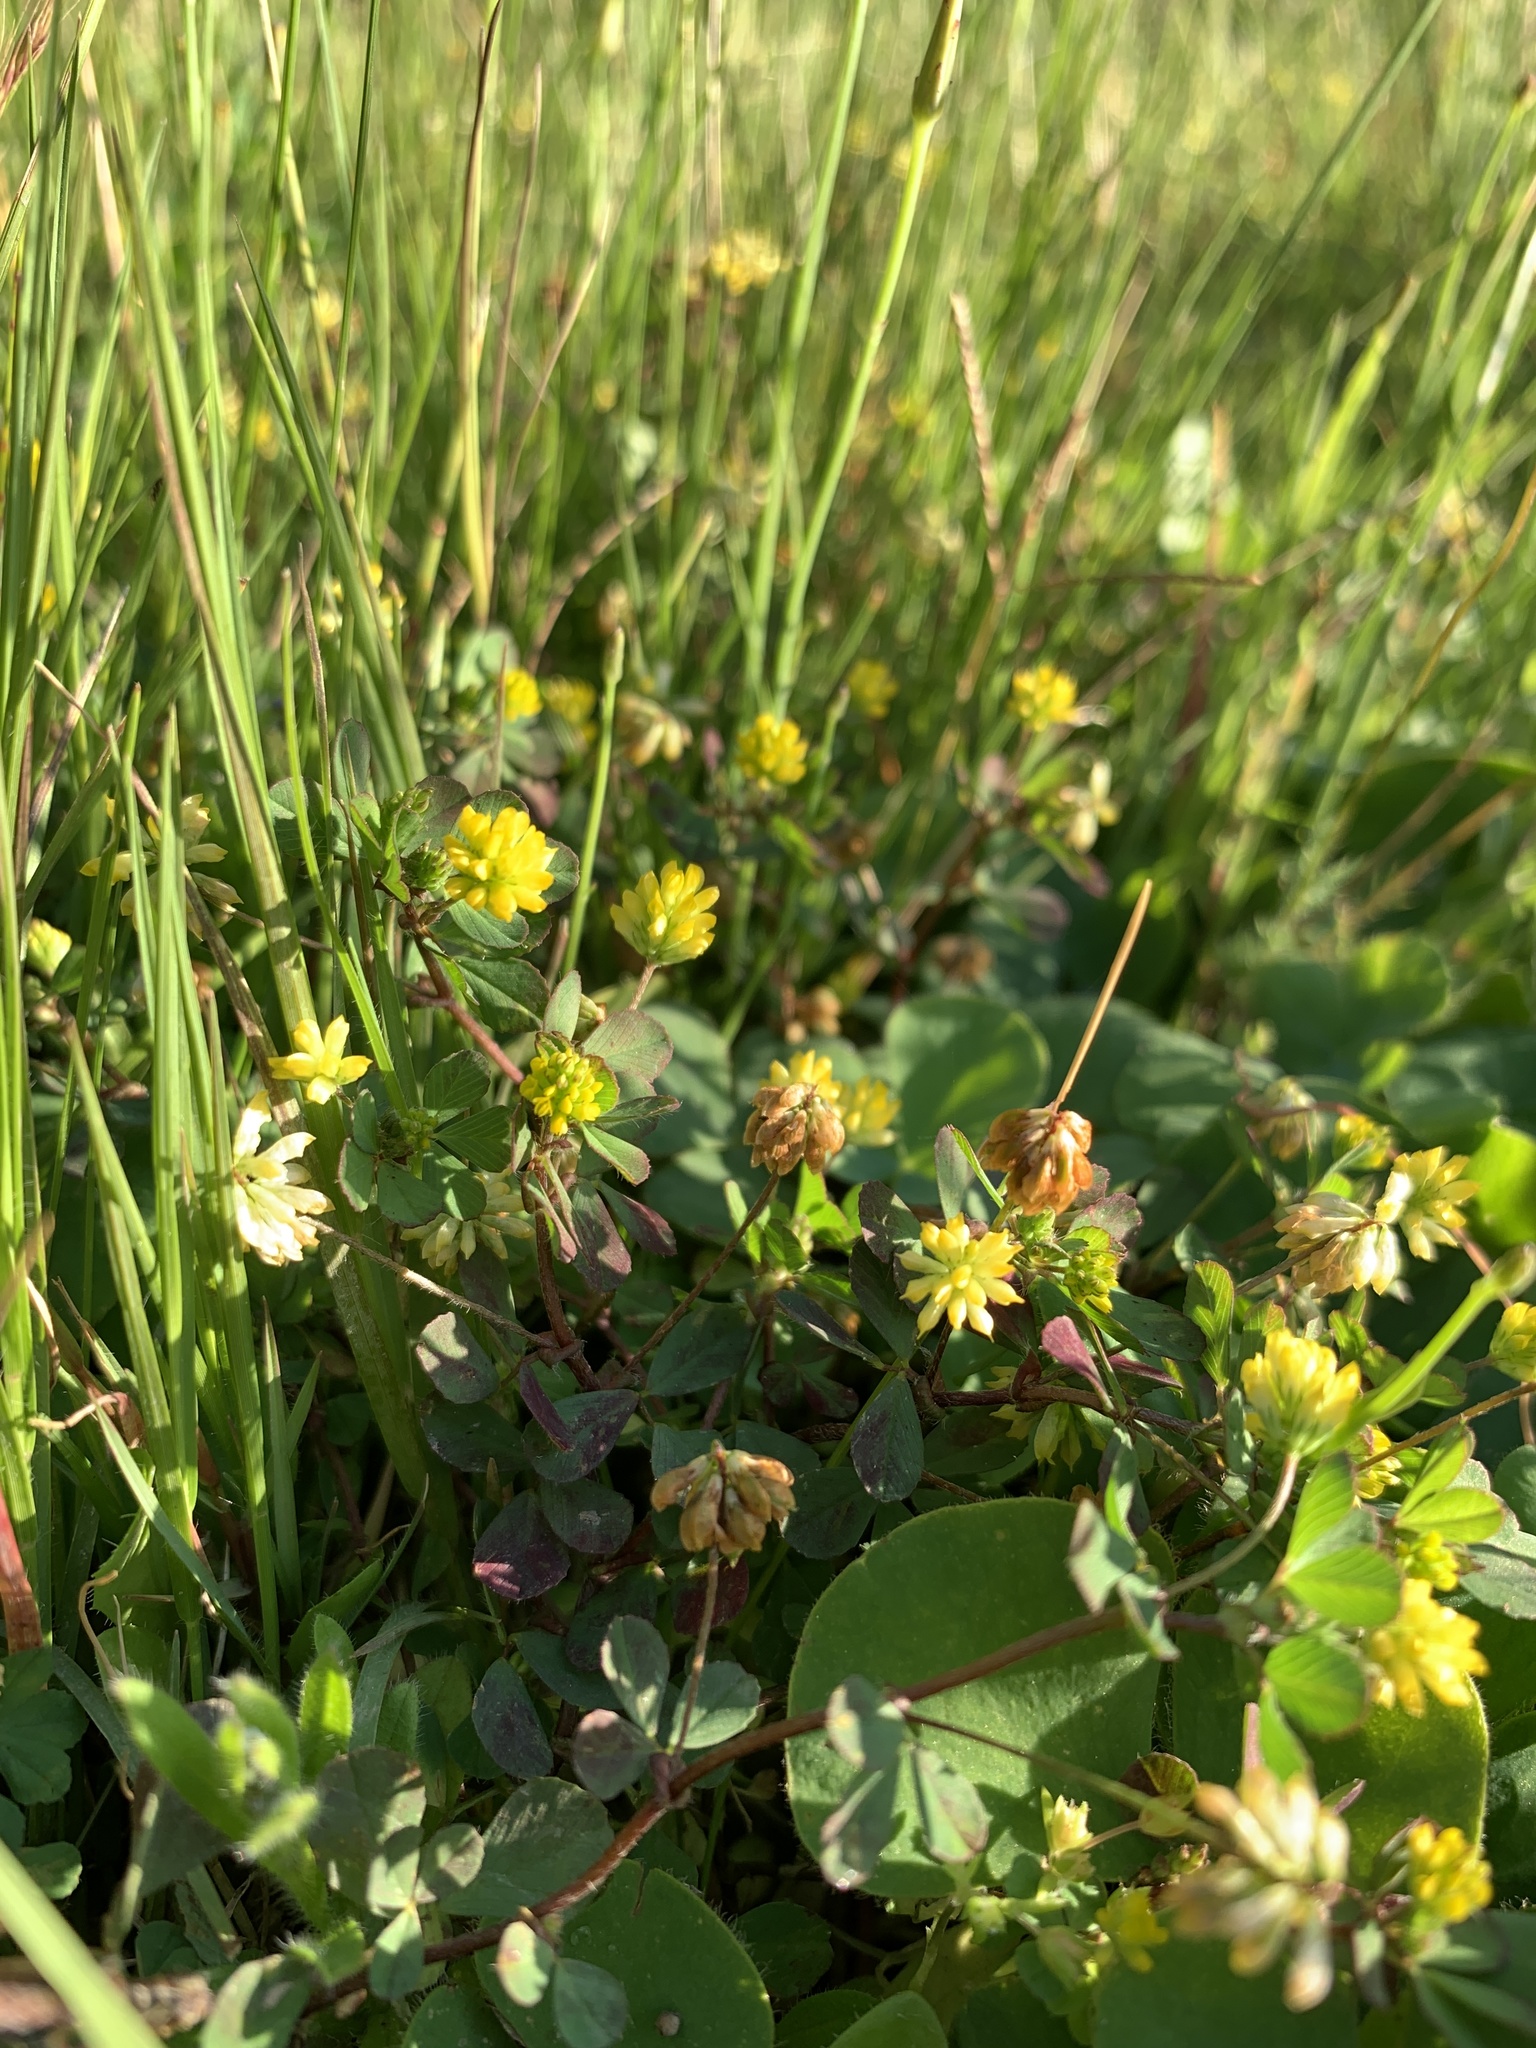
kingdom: Plantae
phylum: Tracheophyta
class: Magnoliopsida
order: Fabales
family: Fabaceae
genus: Trifolium
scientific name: Trifolium dubium
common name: Suckling clover
